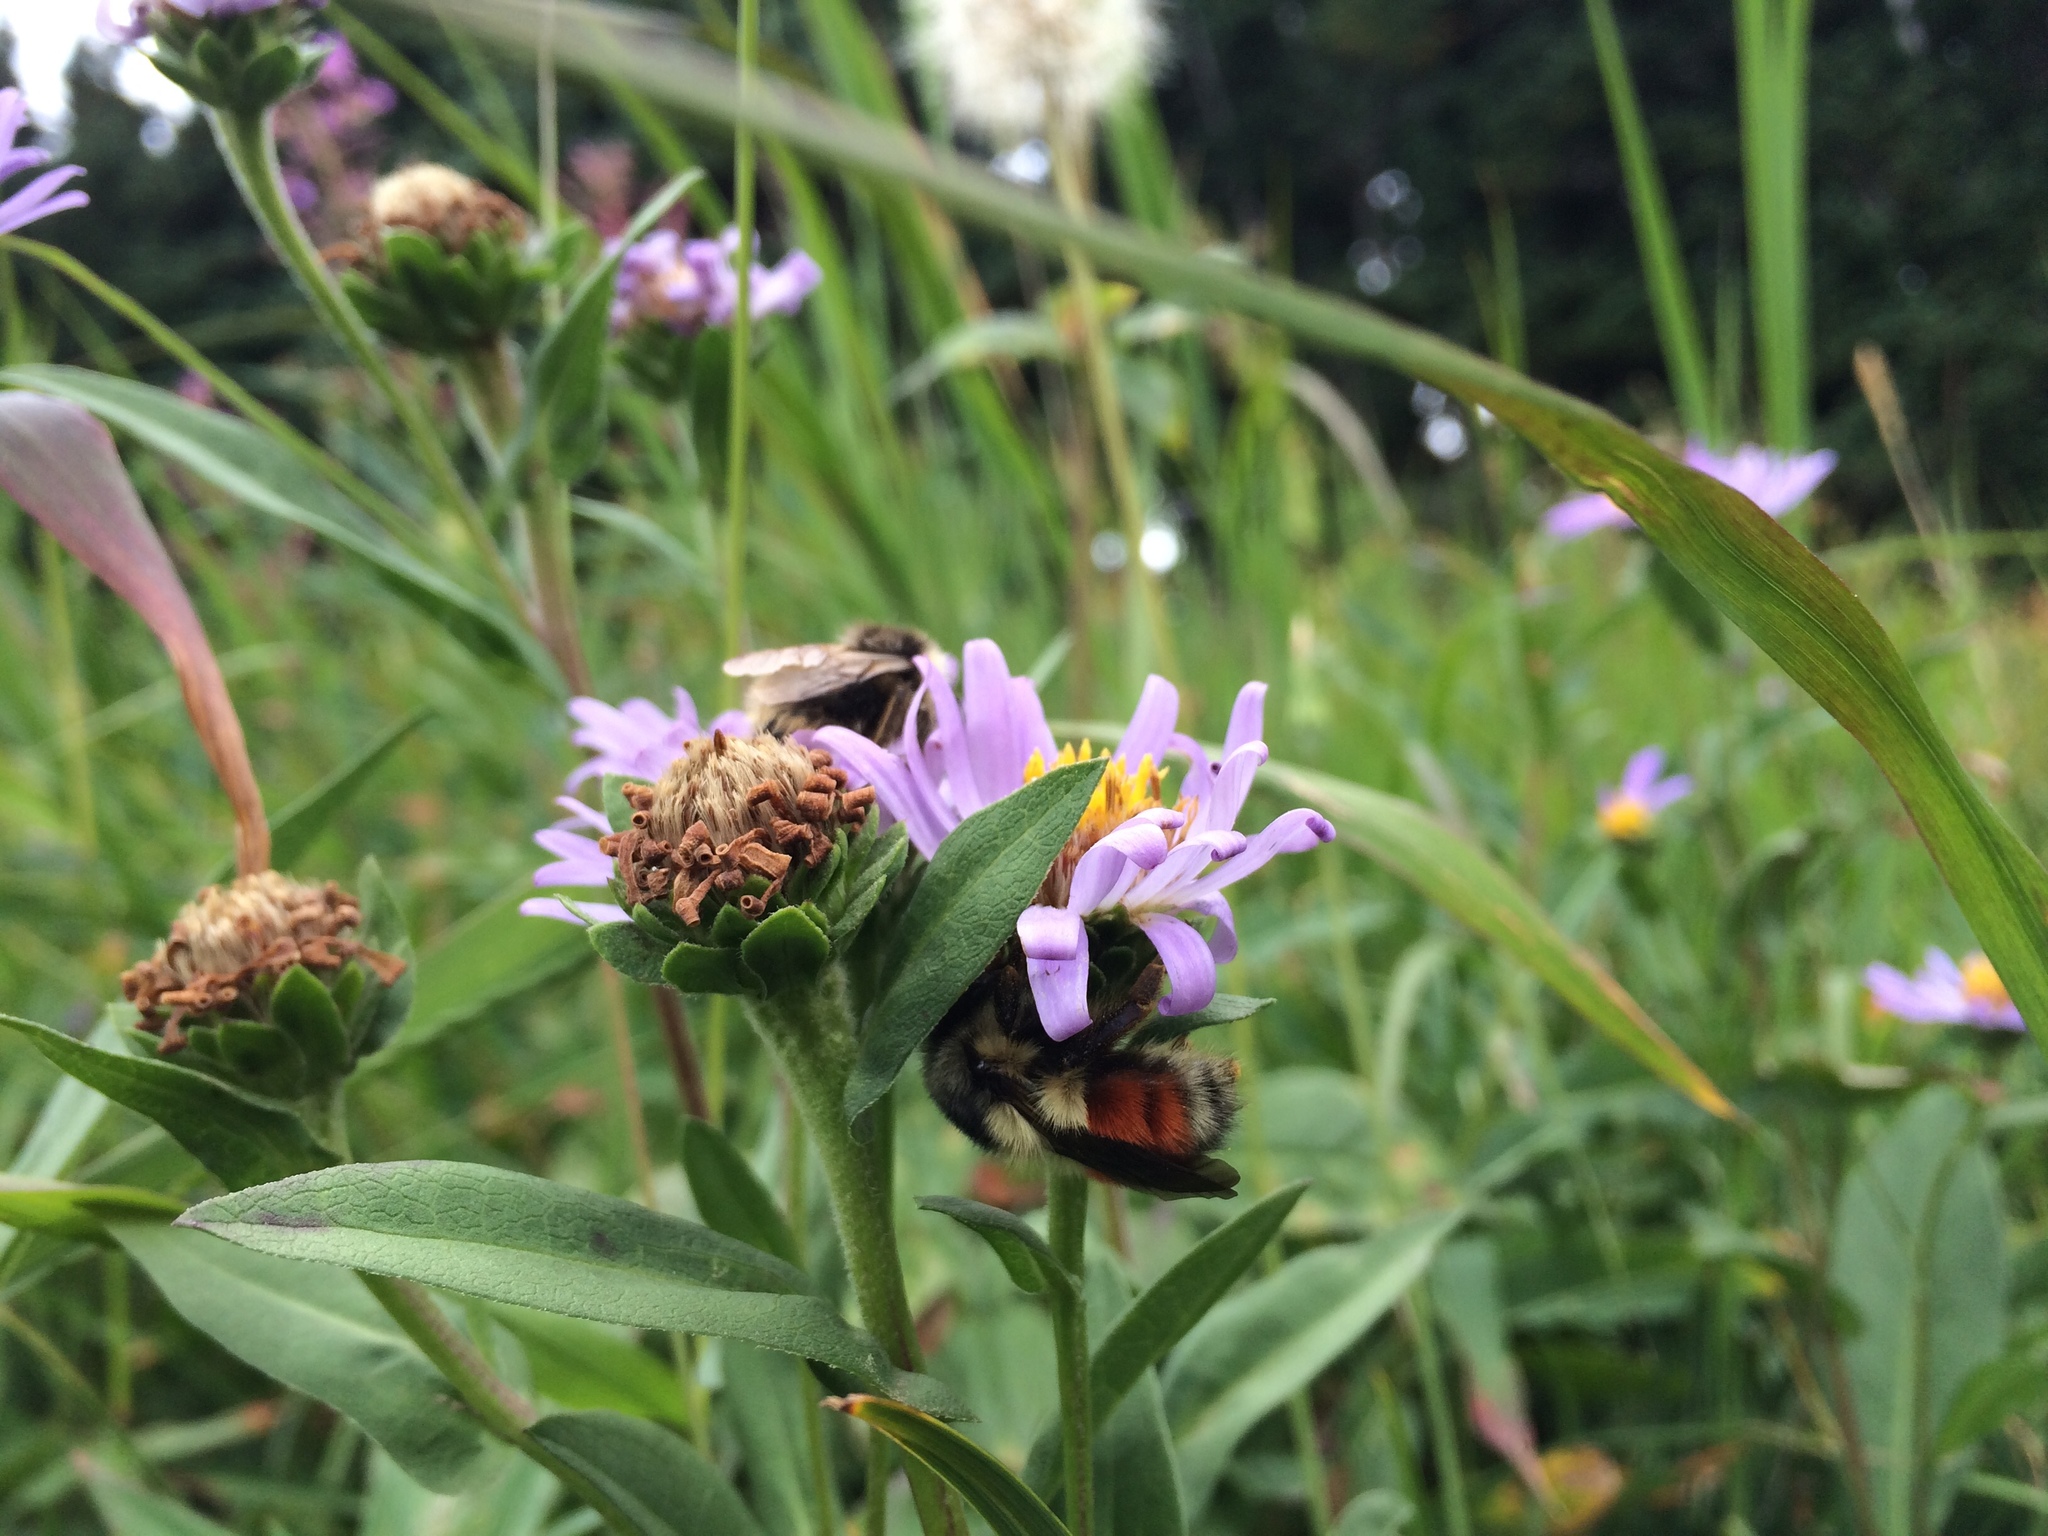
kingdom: Animalia
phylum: Arthropoda
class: Insecta
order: Hymenoptera
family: Apidae
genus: Bombus
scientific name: Bombus melanopygus
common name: Black tail bumble bee
